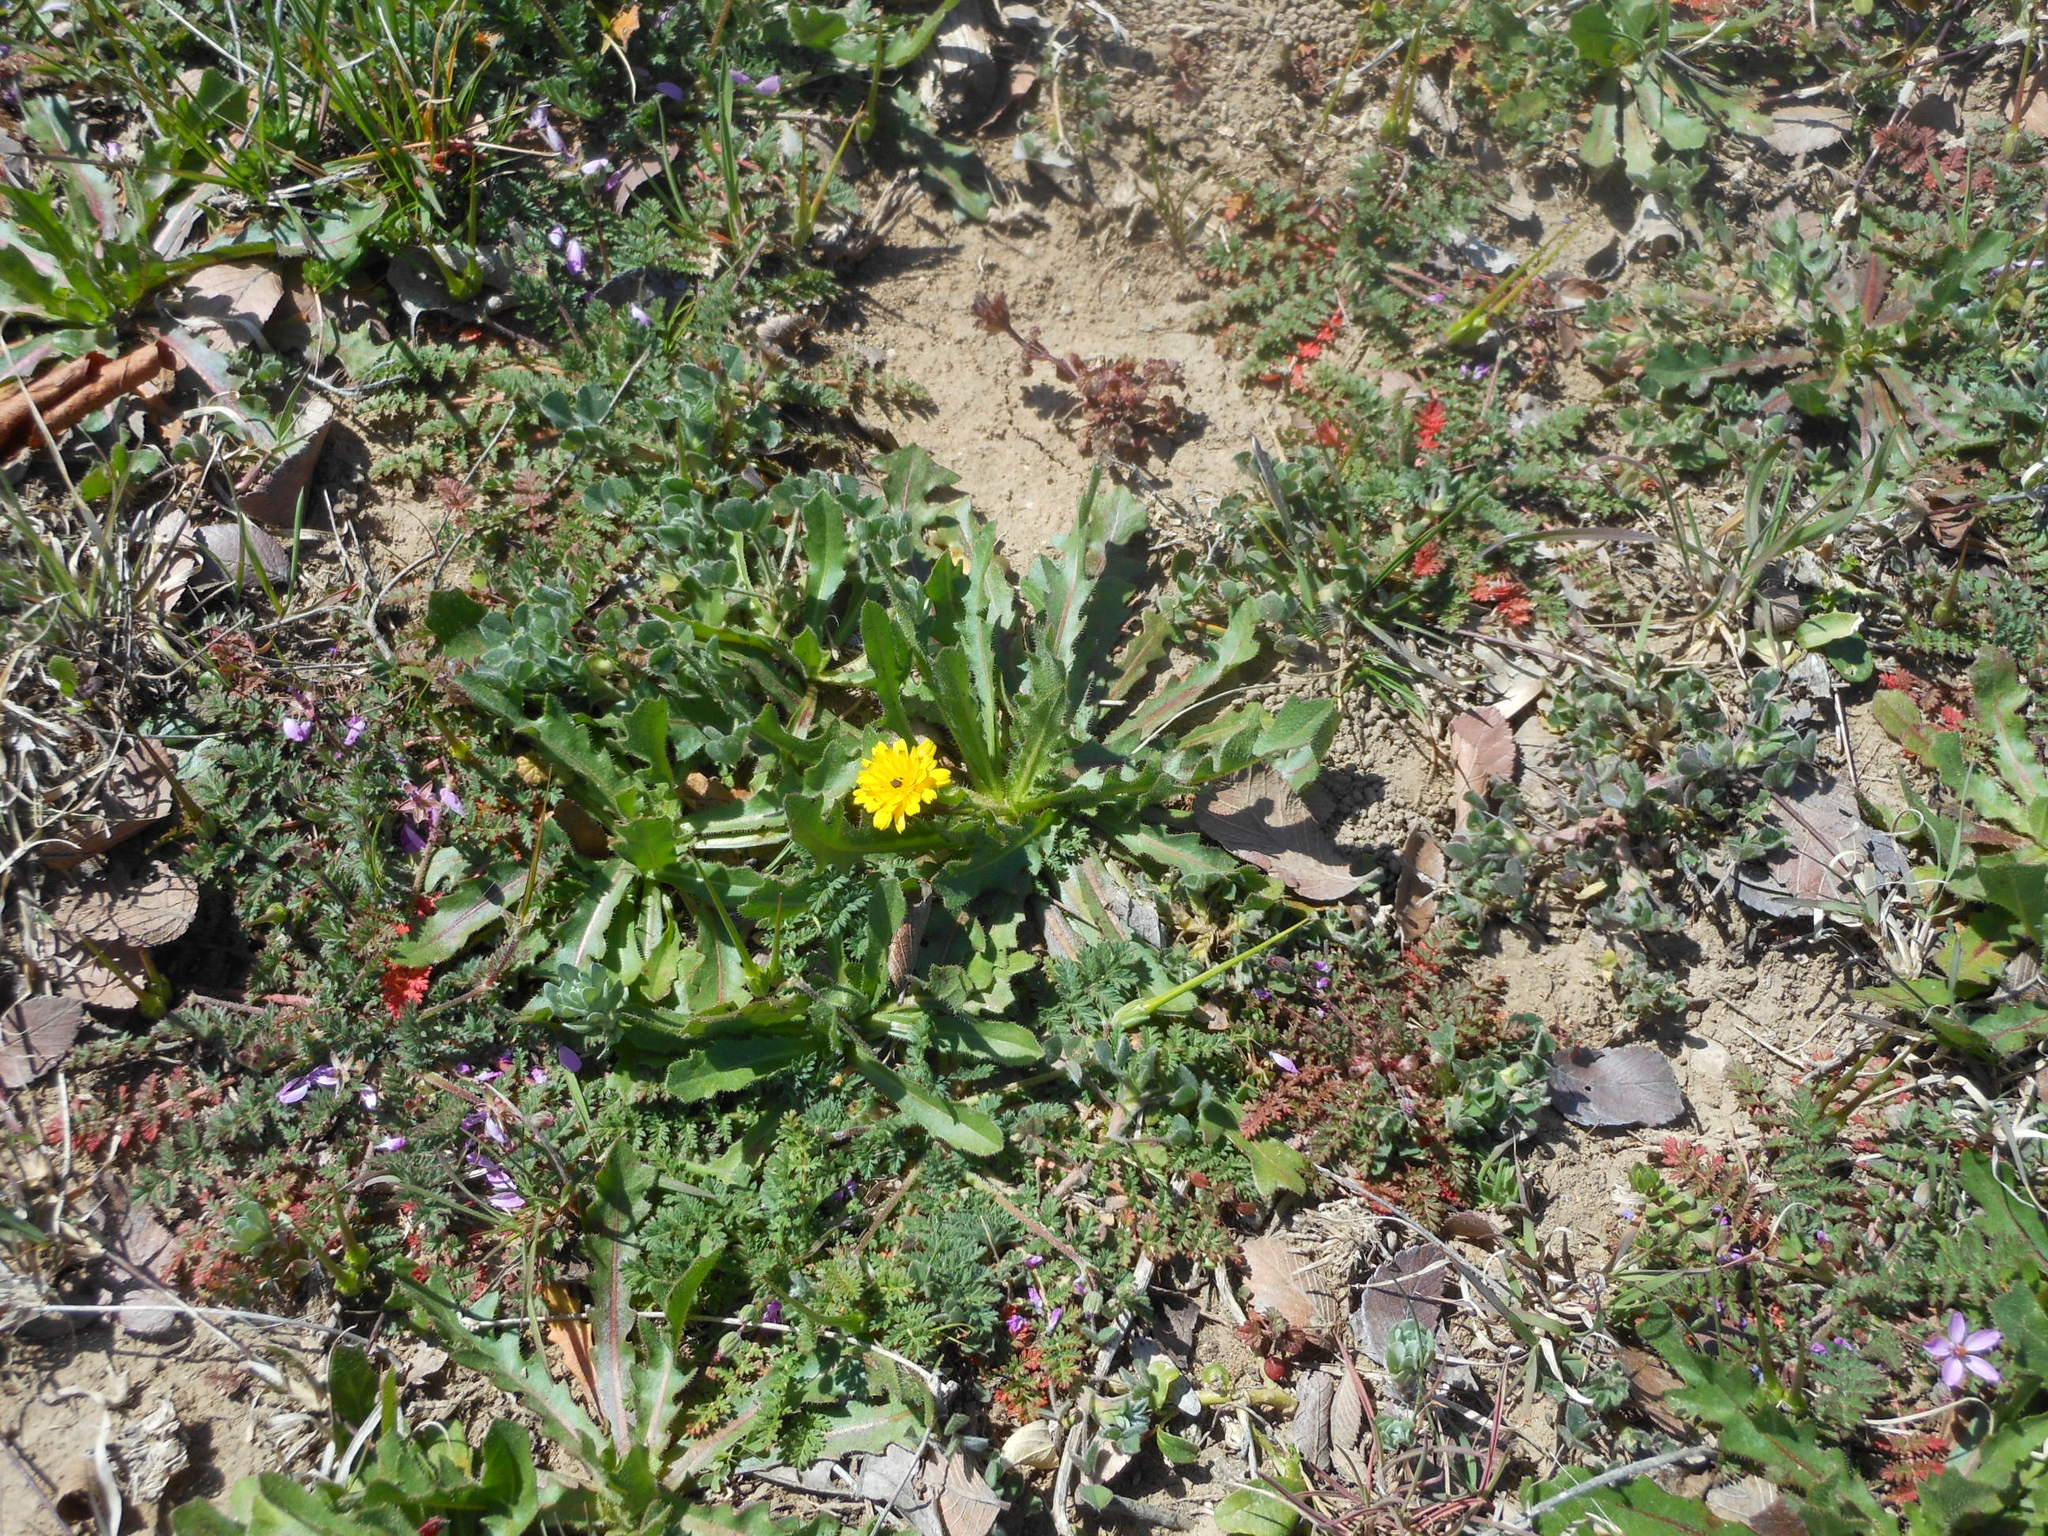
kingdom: Plantae
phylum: Tracheophyta
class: Magnoliopsida
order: Asterales
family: Asteraceae
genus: Hedypnois
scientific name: Hedypnois rhagadioloides
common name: Cretan weed
